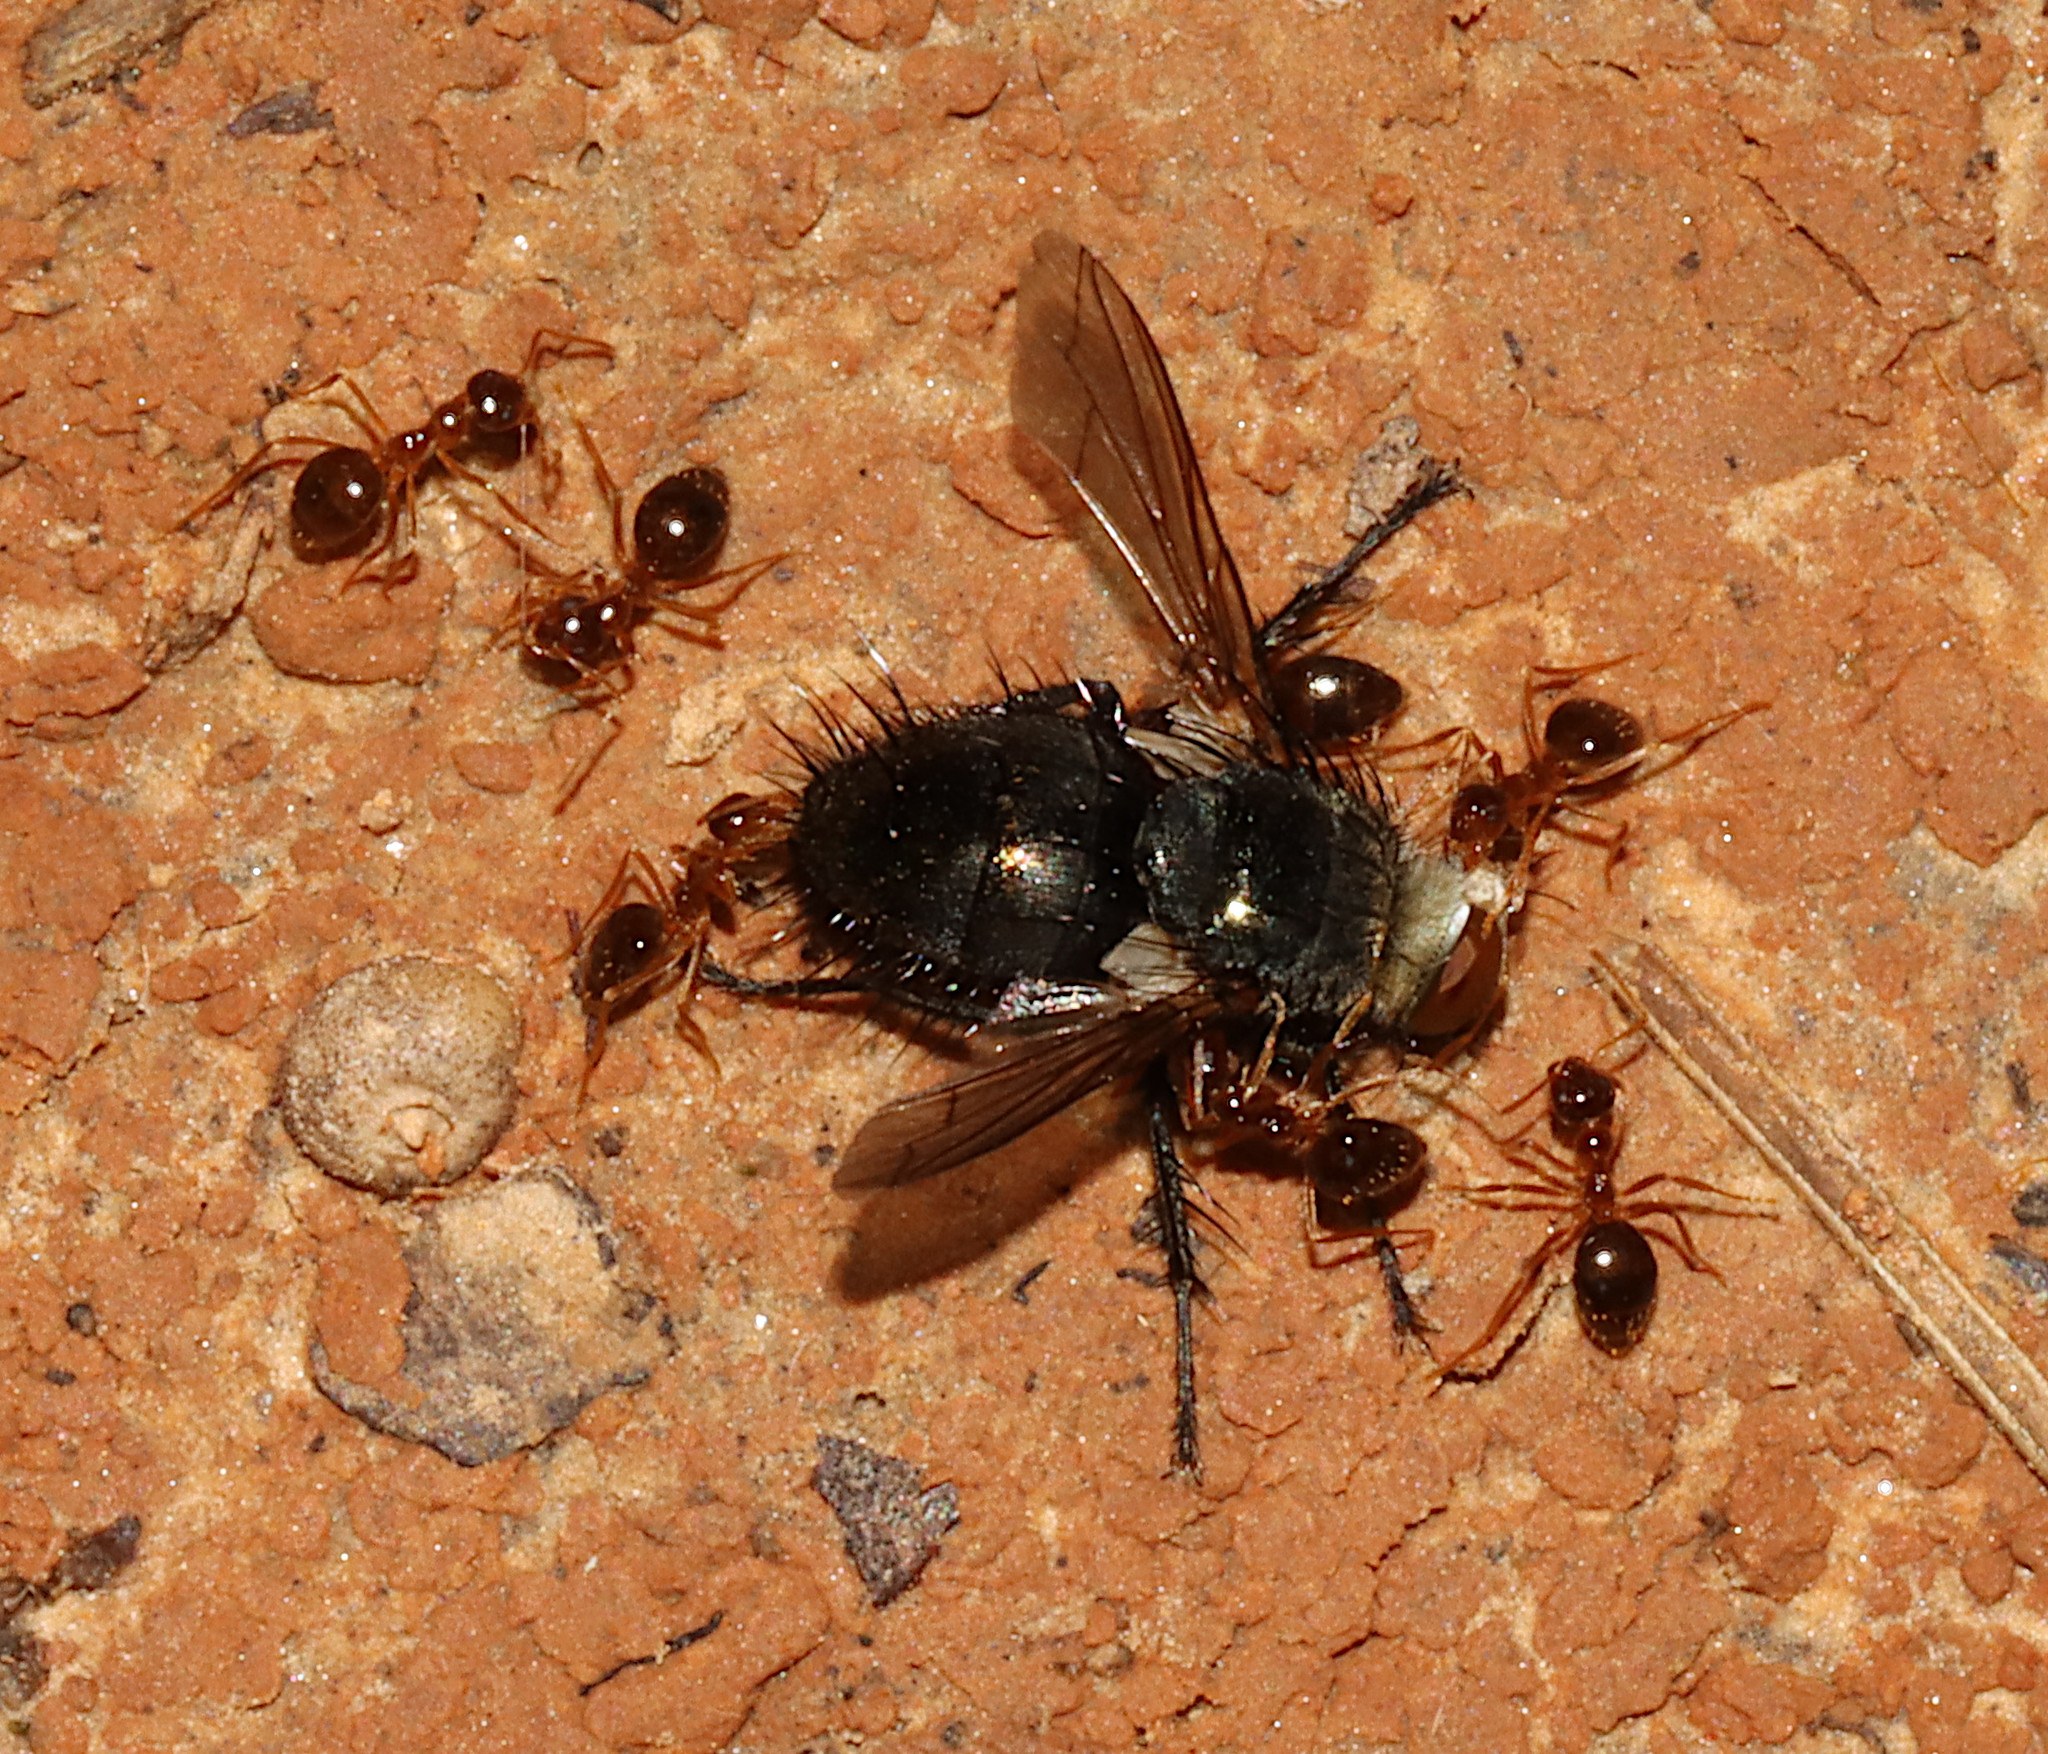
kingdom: Animalia
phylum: Arthropoda
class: Insecta
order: Hymenoptera
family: Formicidae
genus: Prenolepis
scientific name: Prenolepis imparis
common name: Small honey ant
